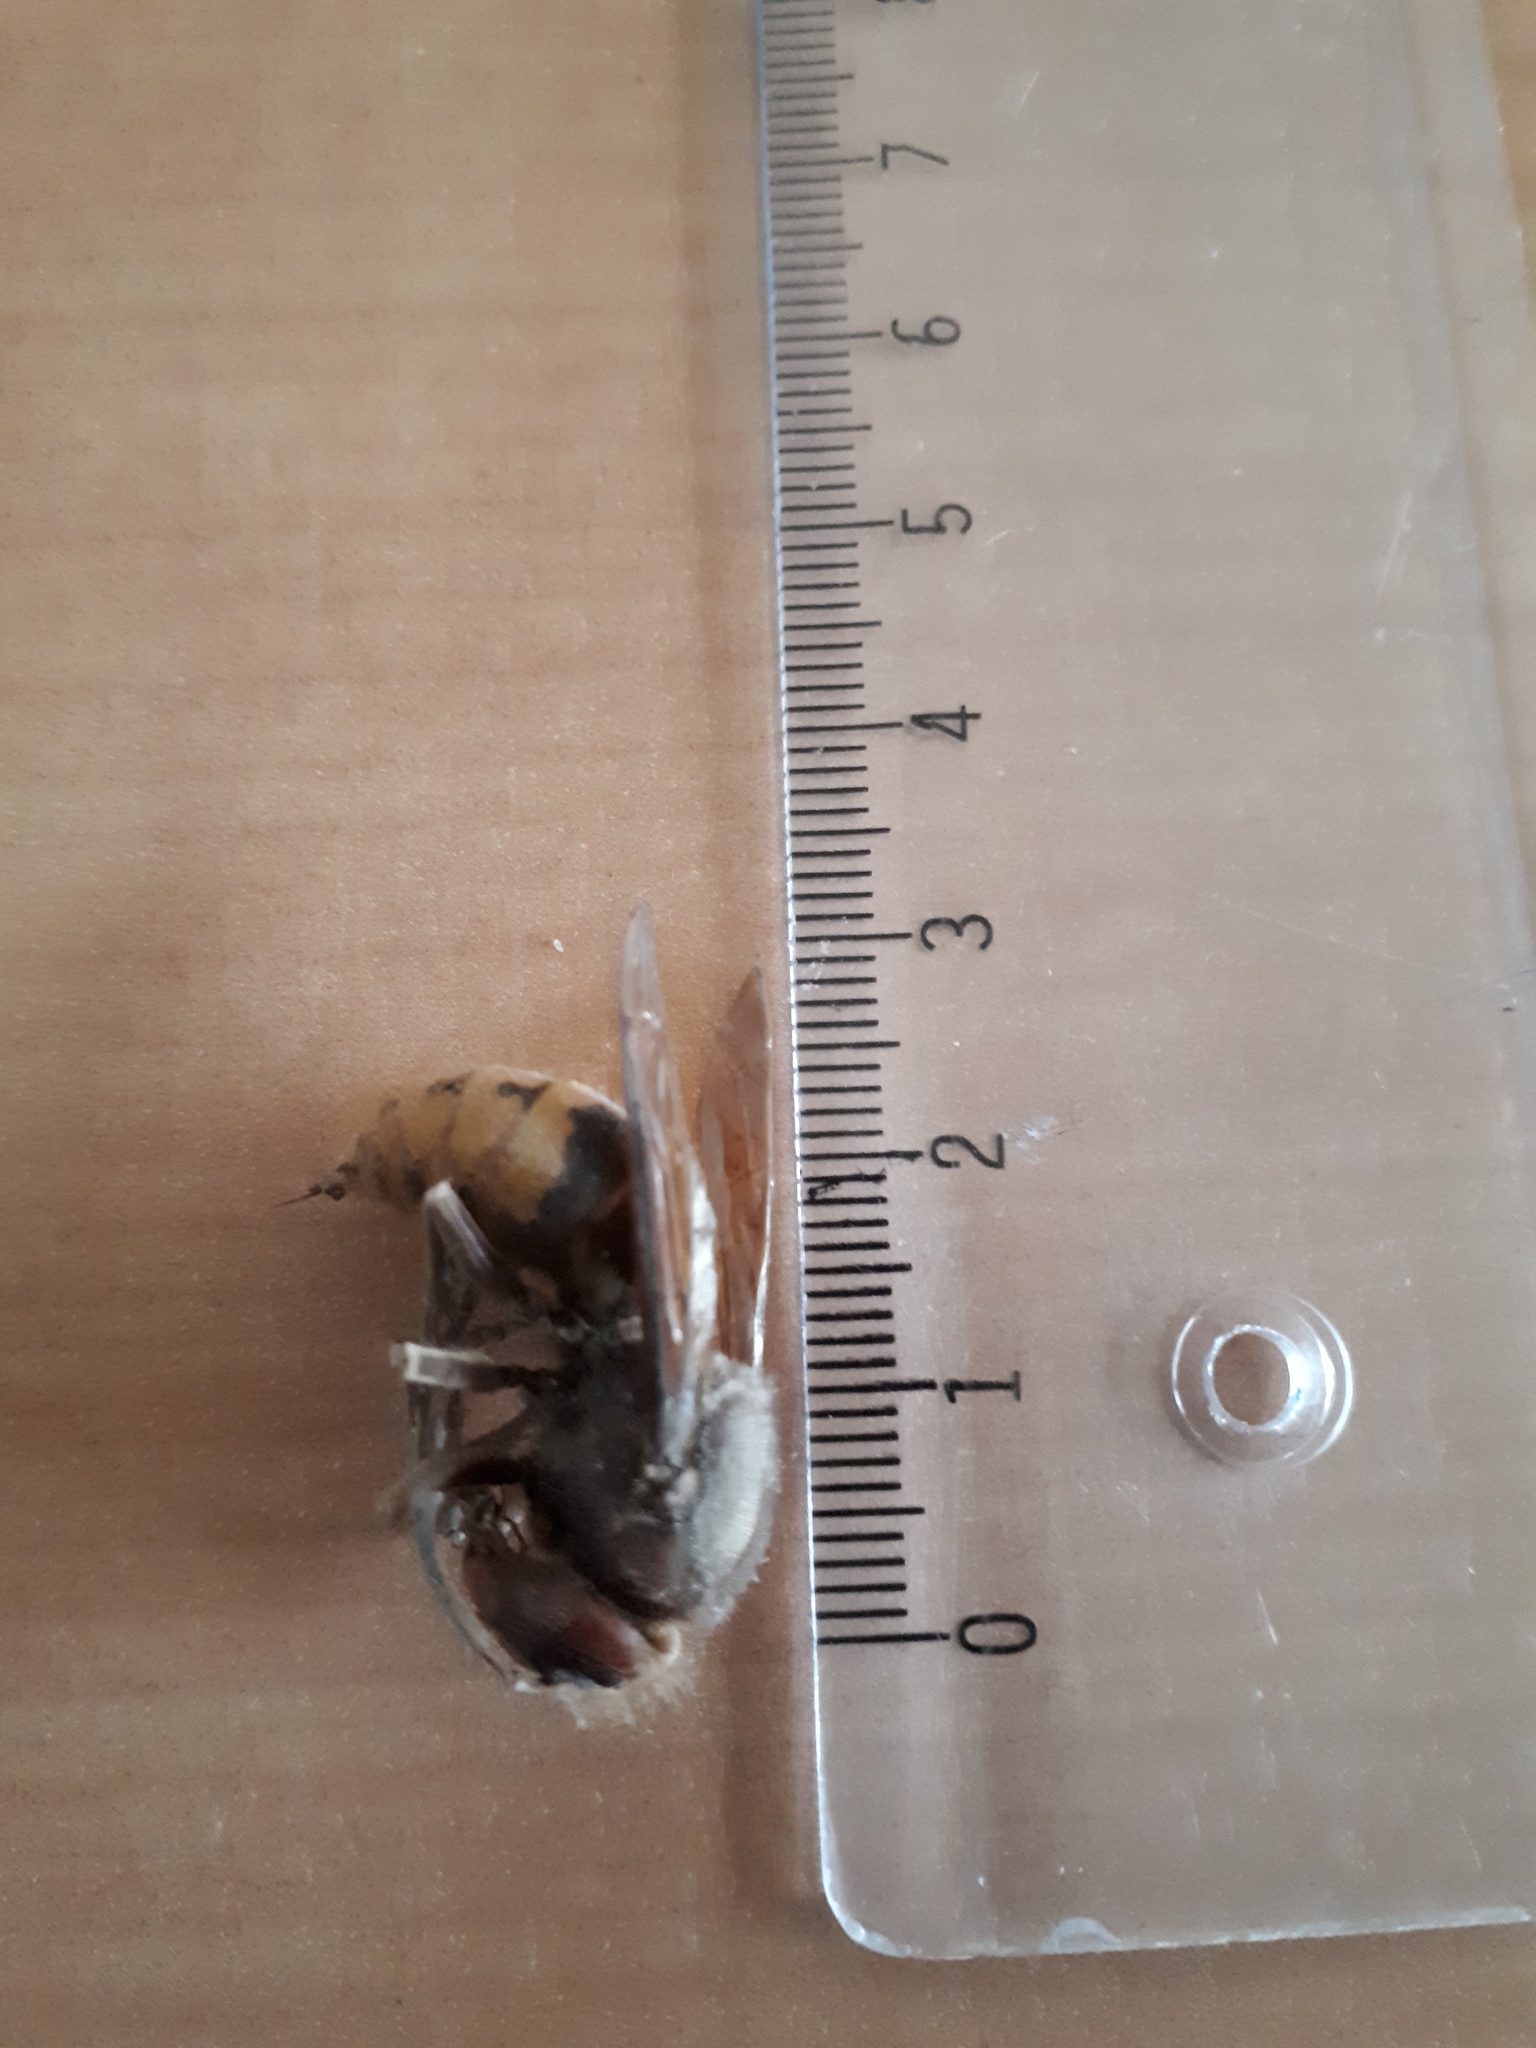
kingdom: Animalia
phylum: Arthropoda
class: Insecta
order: Hymenoptera
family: Vespidae
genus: Vespa
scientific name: Vespa crabro
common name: Hornet
